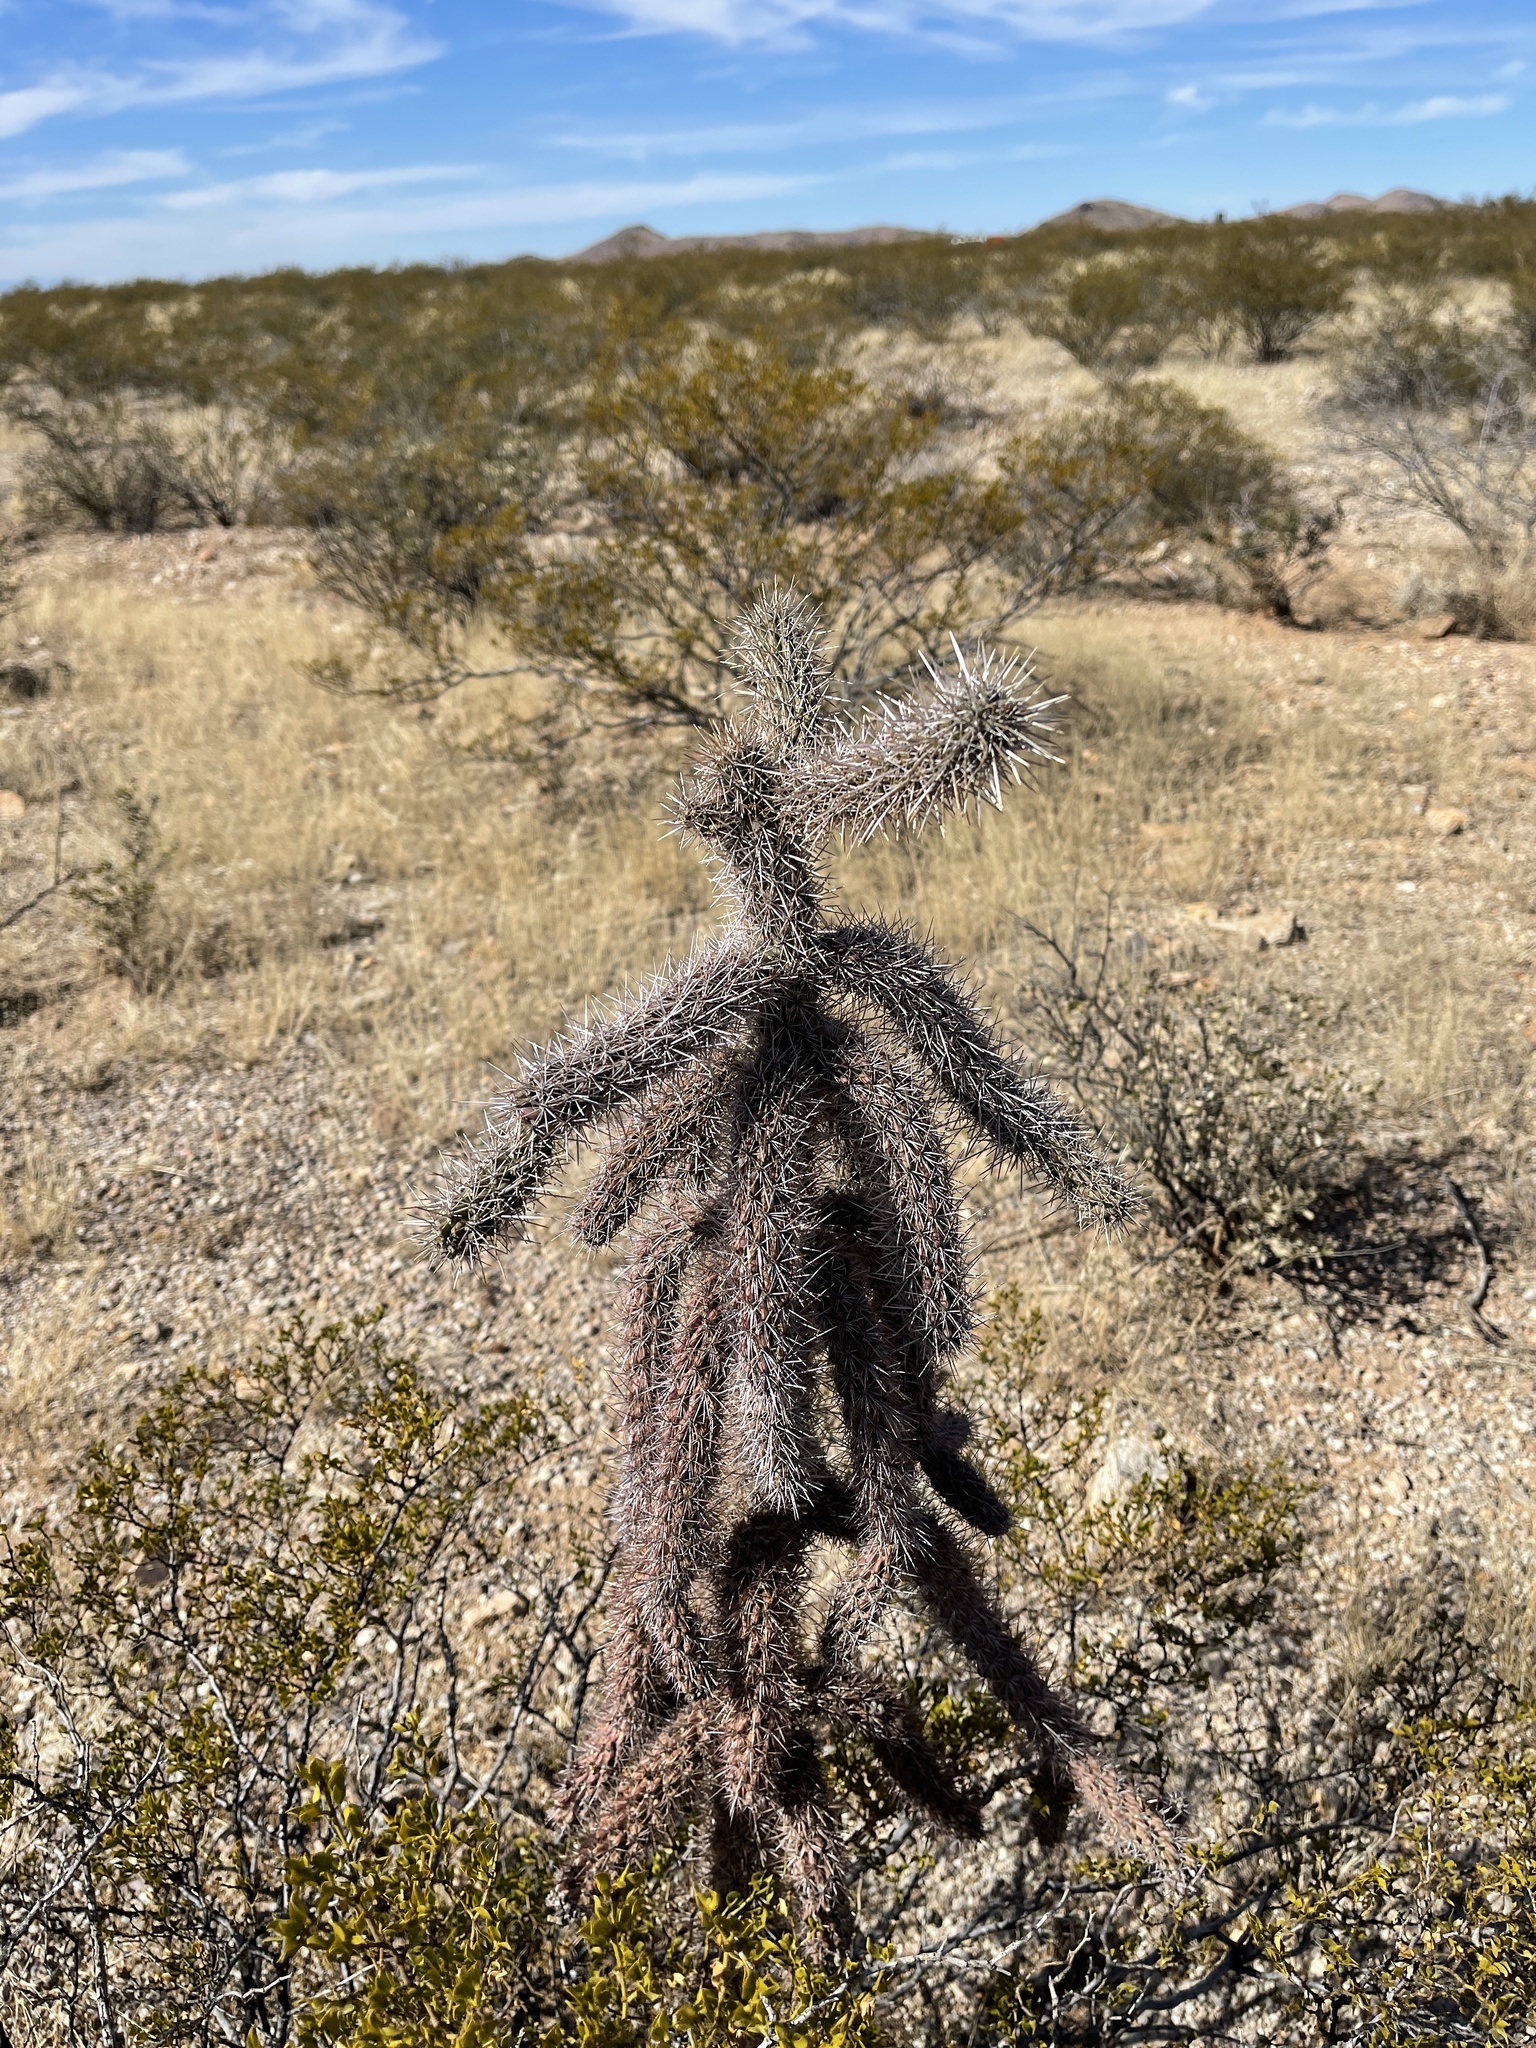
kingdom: Plantae
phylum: Tracheophyta
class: Magnoliopsida
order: Caryophyllales
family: Cactaceae
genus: Cylindropuntia
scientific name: Cylindropuntia imbricata
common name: Candelabrum cactus
